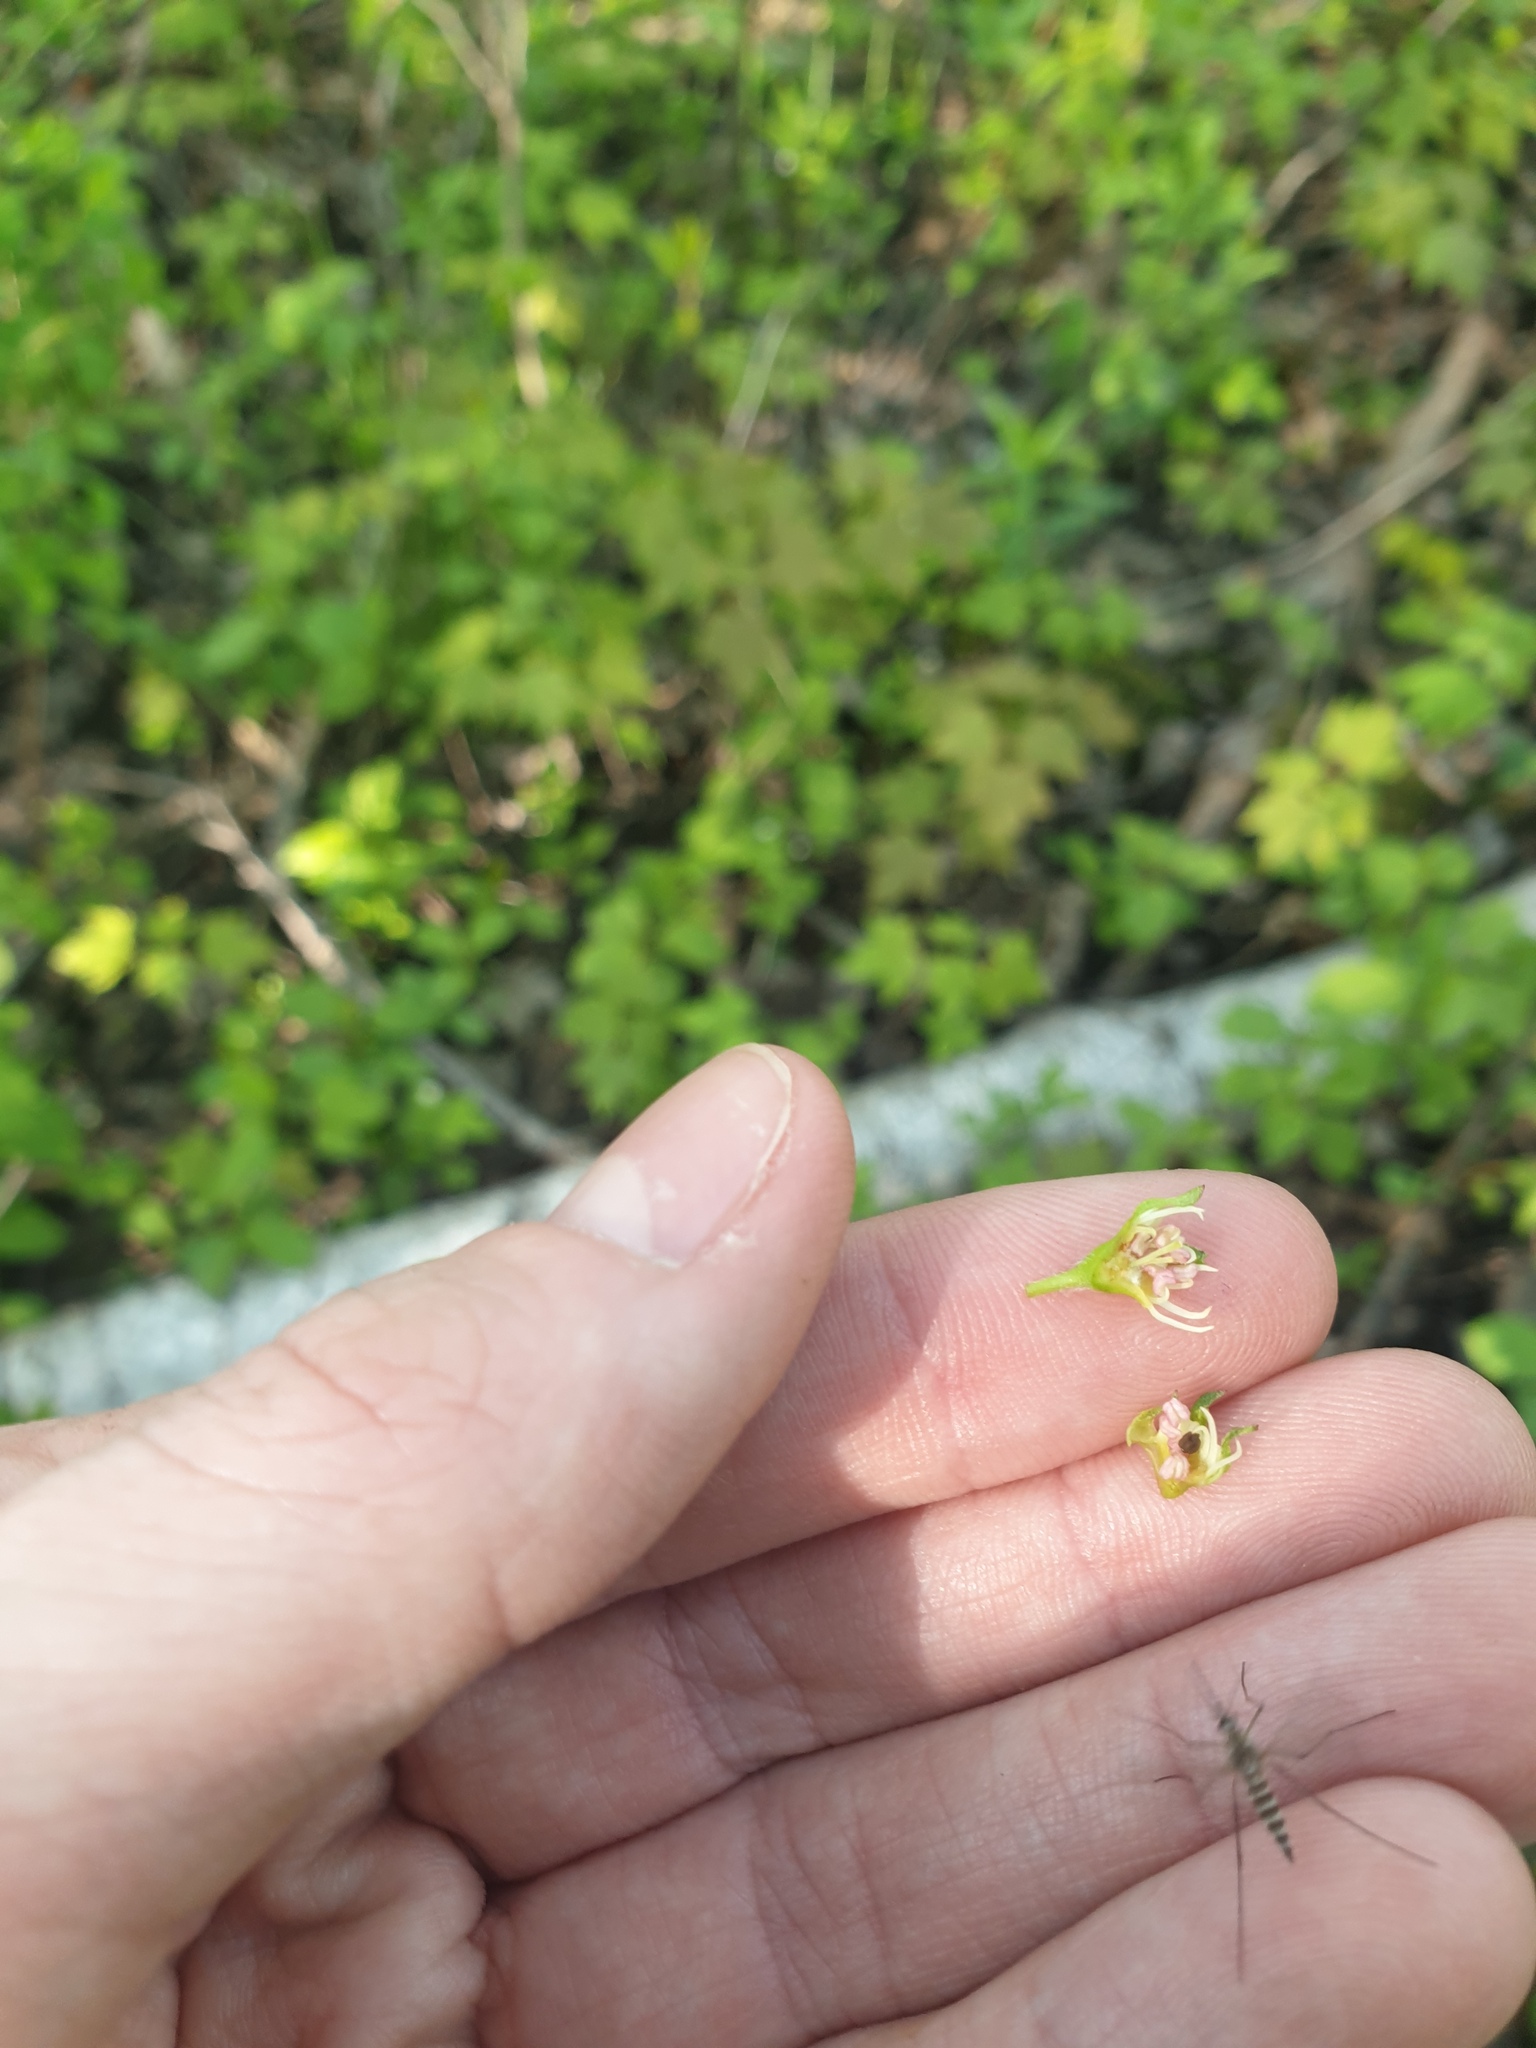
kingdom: Plantae
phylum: Tracheophyta
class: Magnoliopsida
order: Rosales
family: Rosaceae
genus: Crataegus
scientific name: Crataegus flabellata
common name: Bosc's hawthorn
